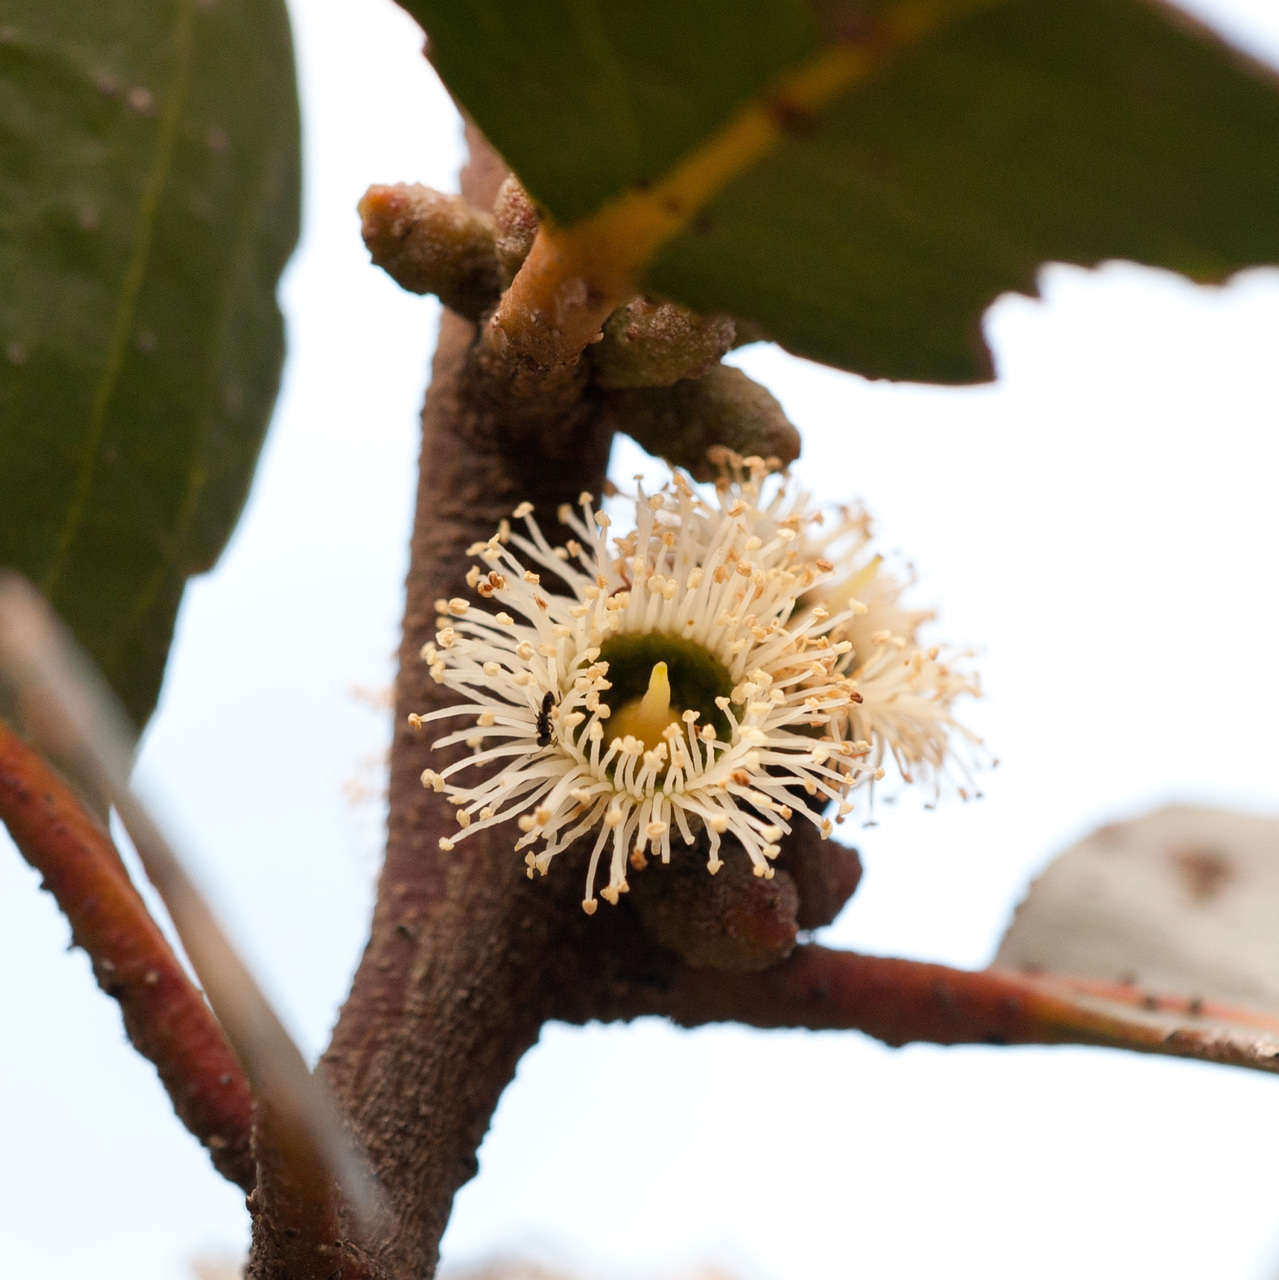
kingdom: Plantae
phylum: Tracheophyta
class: Magnoliopsida
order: Myrtales
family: Myrtaceae
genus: Eucalyptus
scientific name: Eucalyptus serraensis
